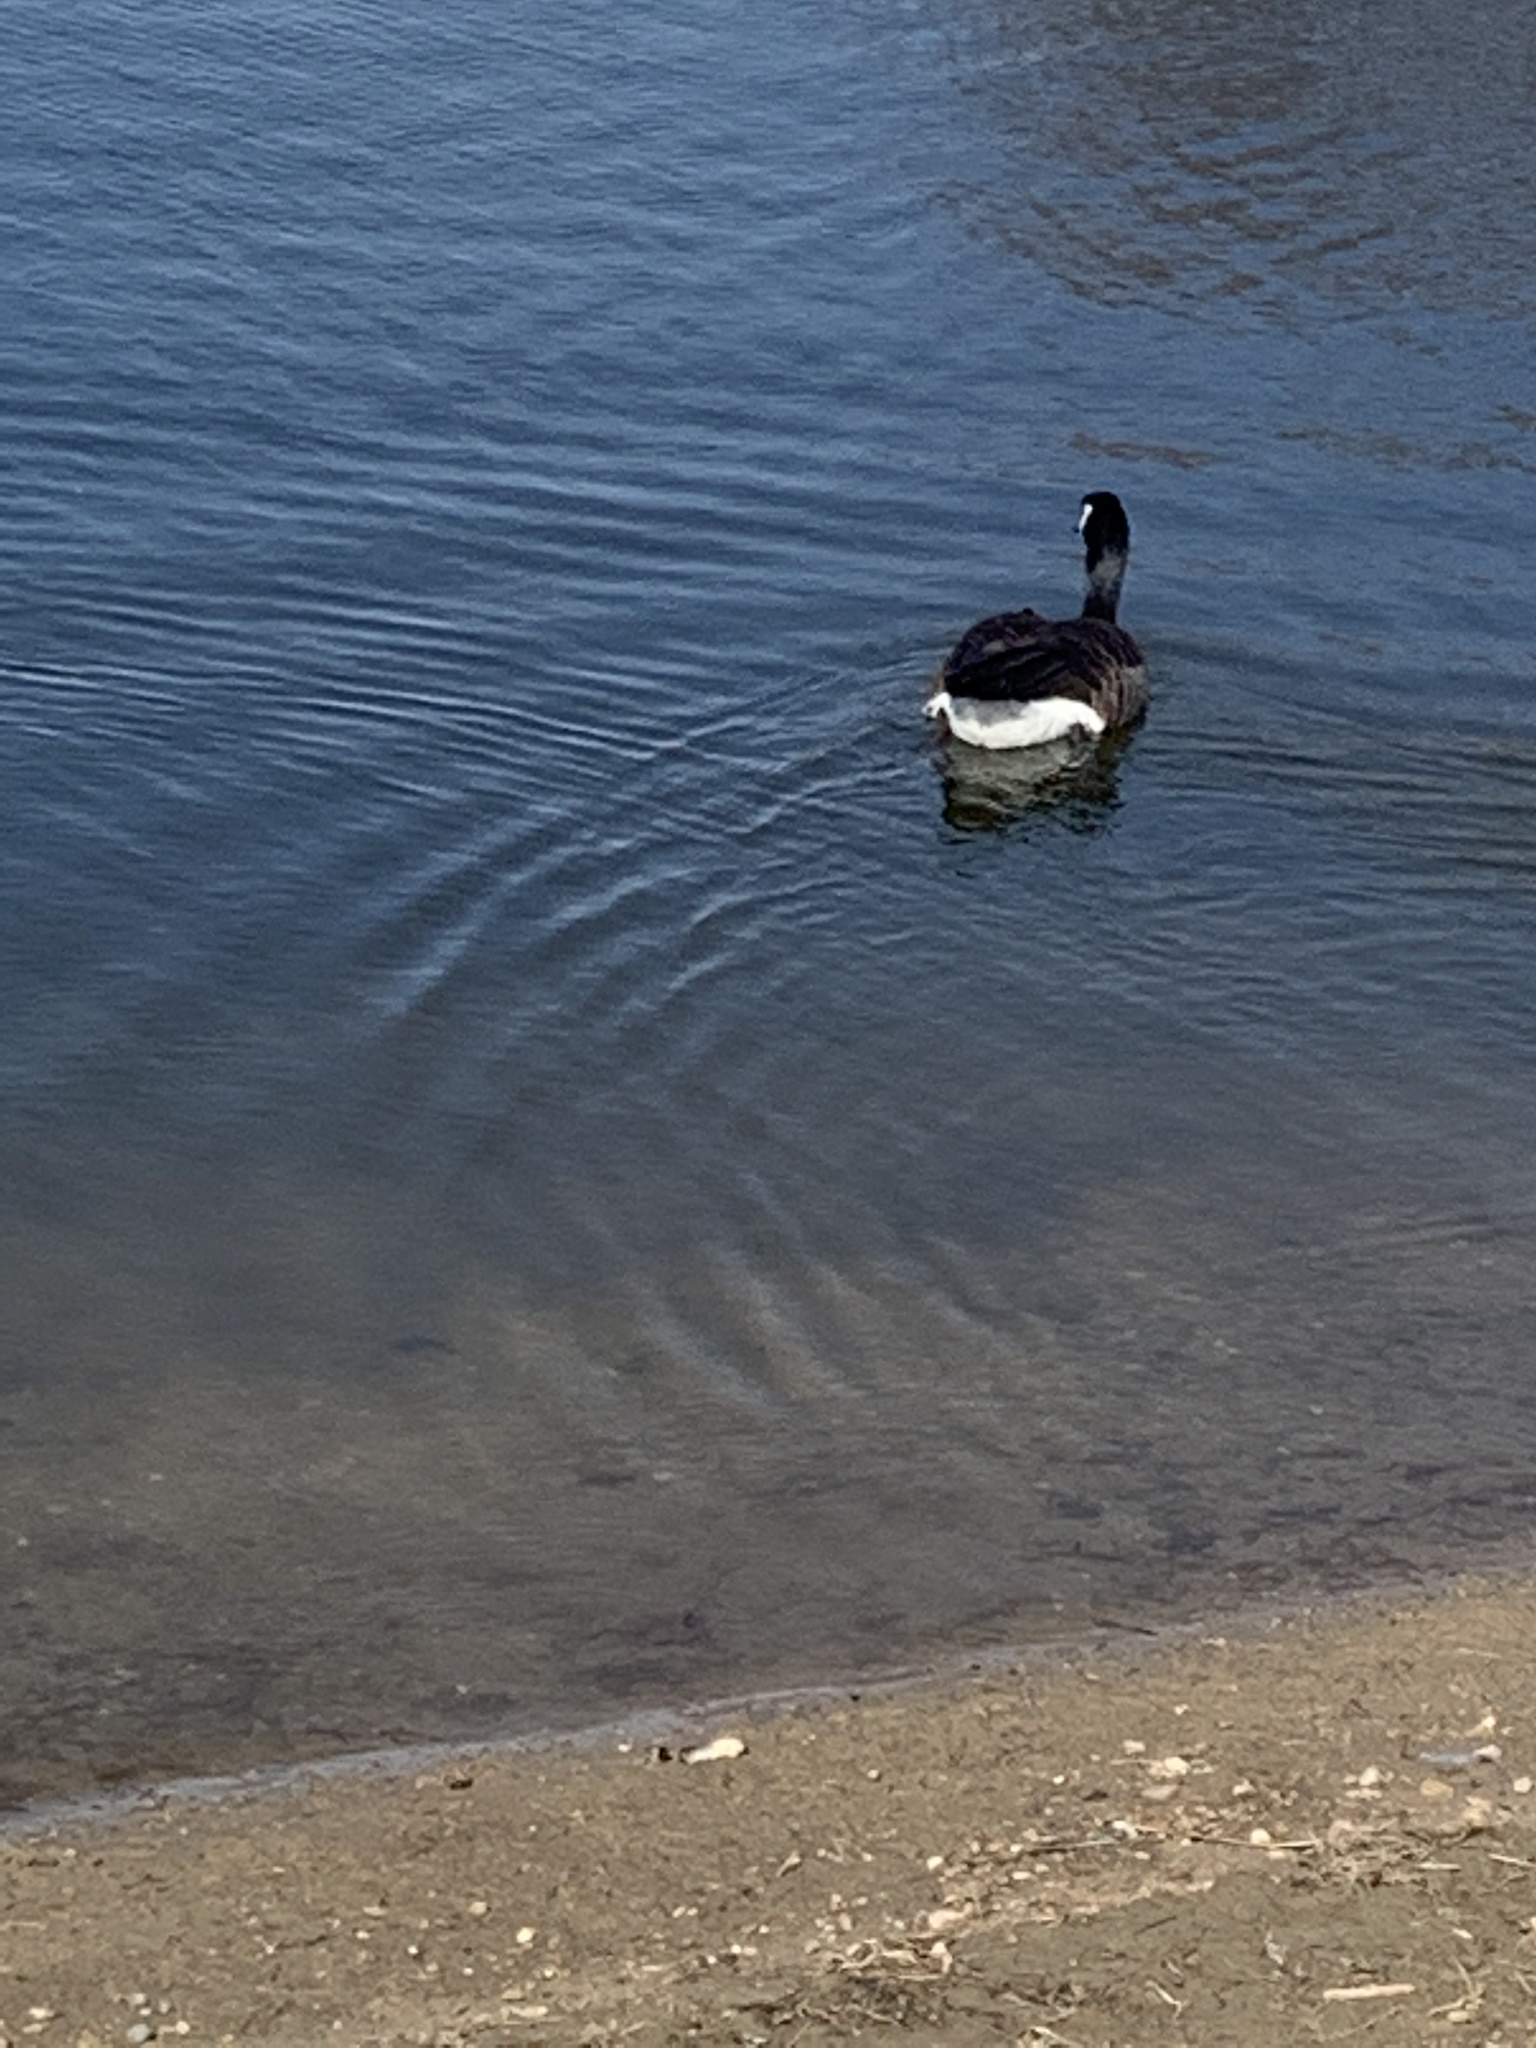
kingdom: Animalia
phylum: Chordata
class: Aves
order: Anseriformes
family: Anatidae
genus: Branta
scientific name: Branta canadensis
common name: Canada goose
